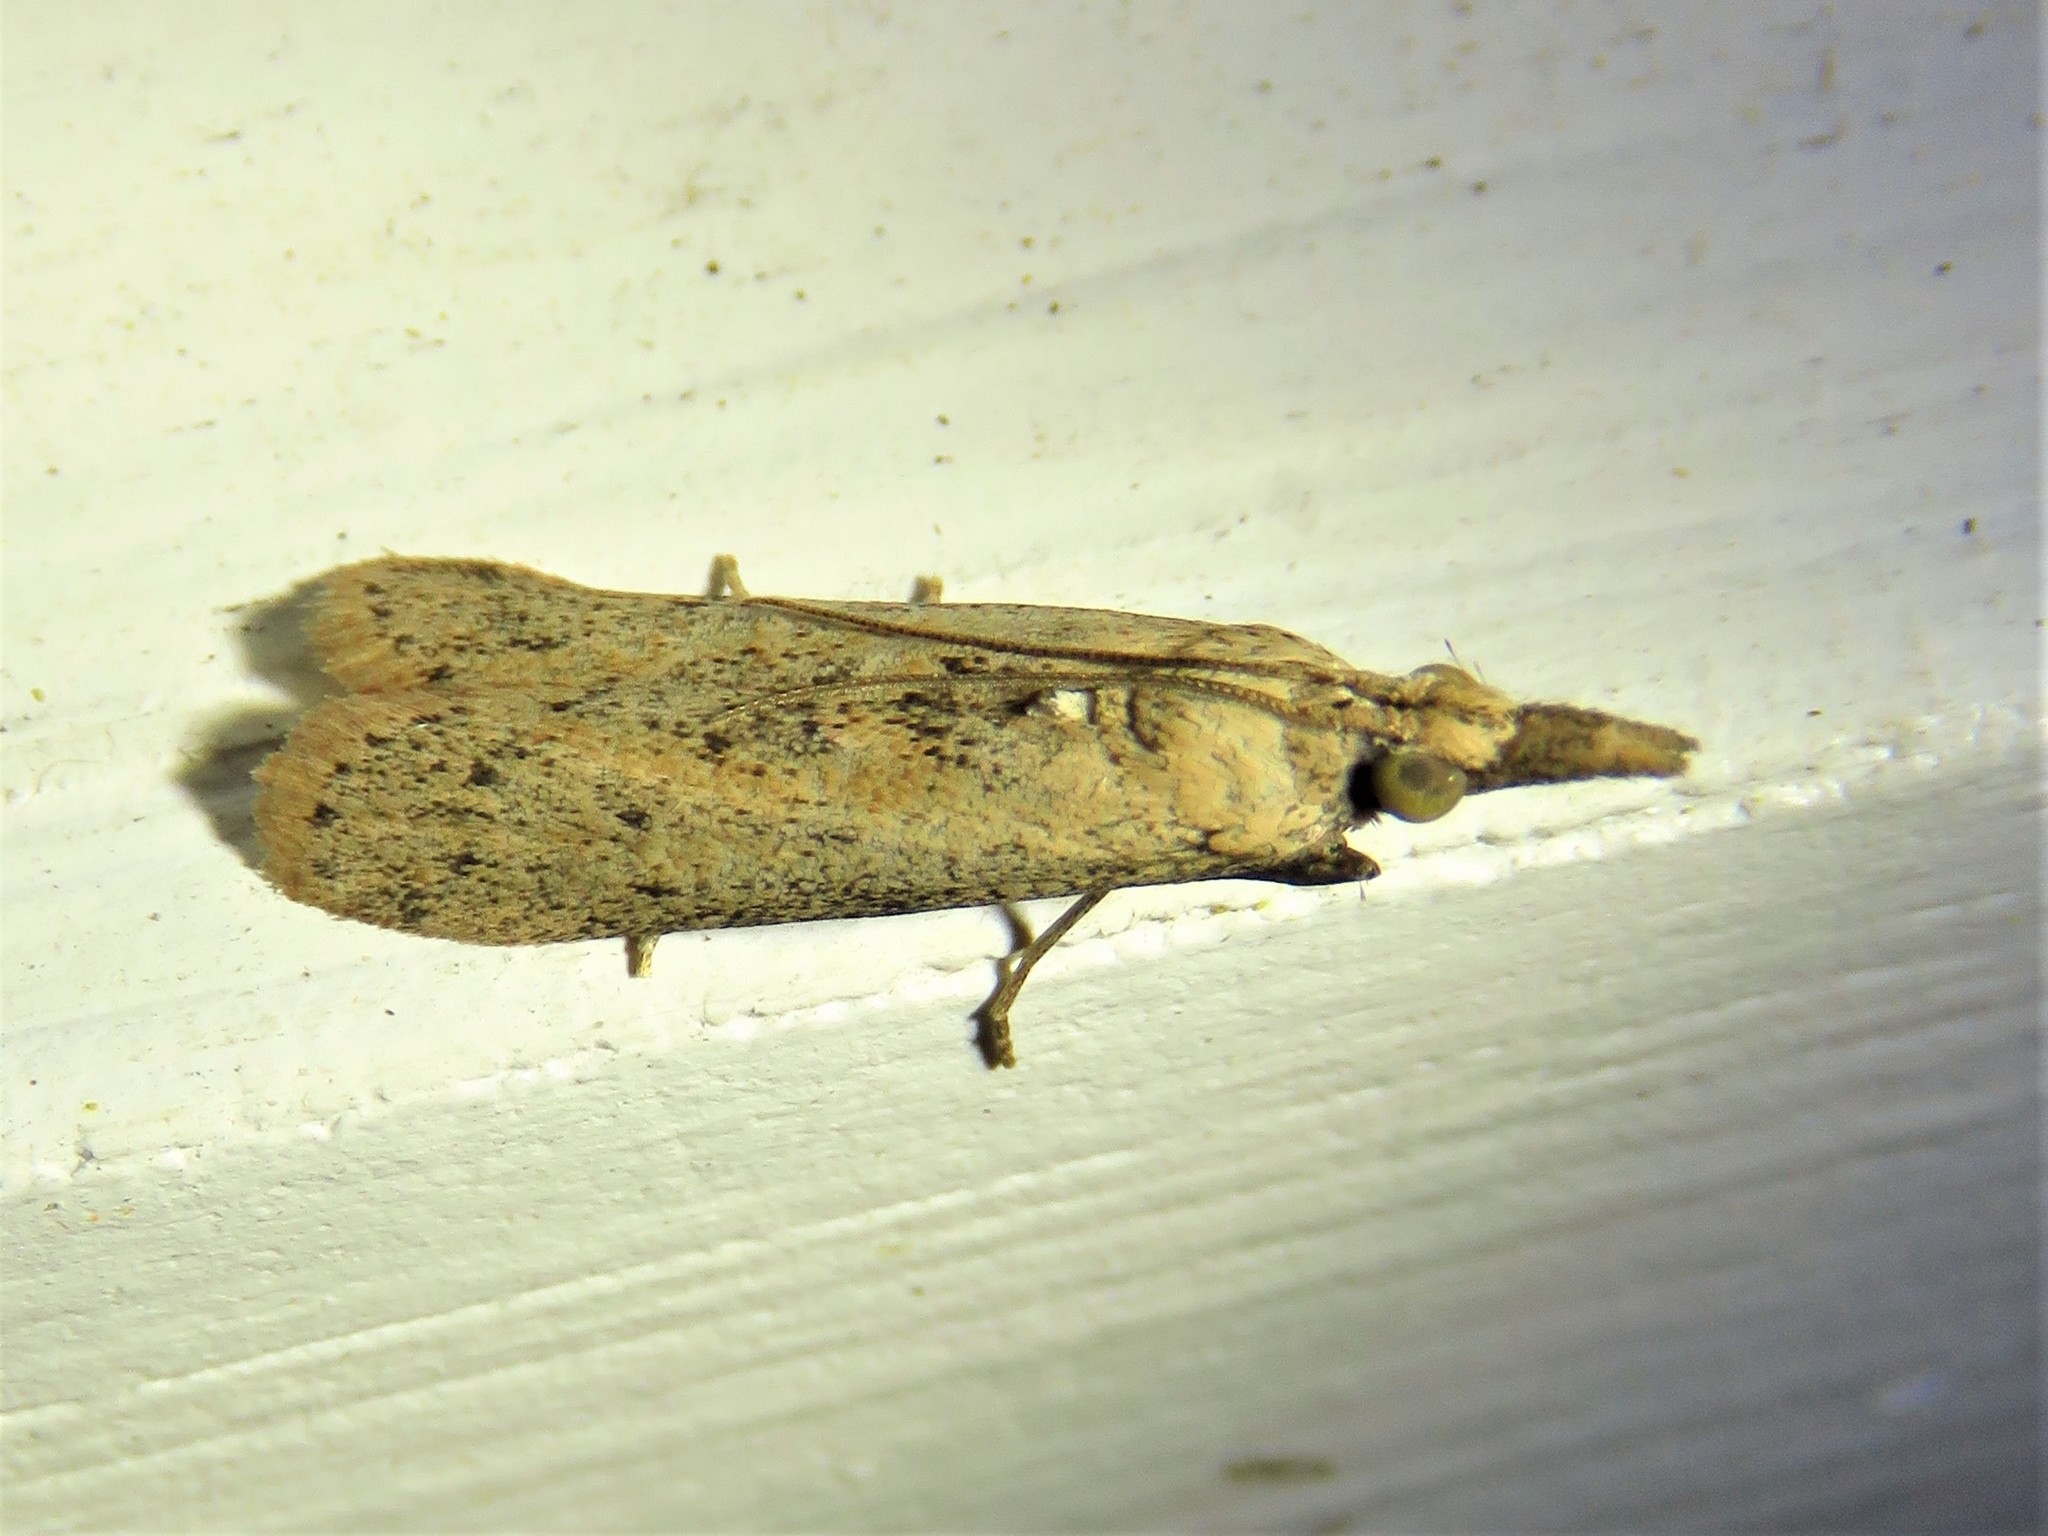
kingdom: Animalia
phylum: Arthropoda
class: Insecta
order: Lepidoptera
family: Pyralidae
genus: Macrorrhinia
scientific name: Macrorrhinia endonephele
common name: Alligator weed stemborer moth
